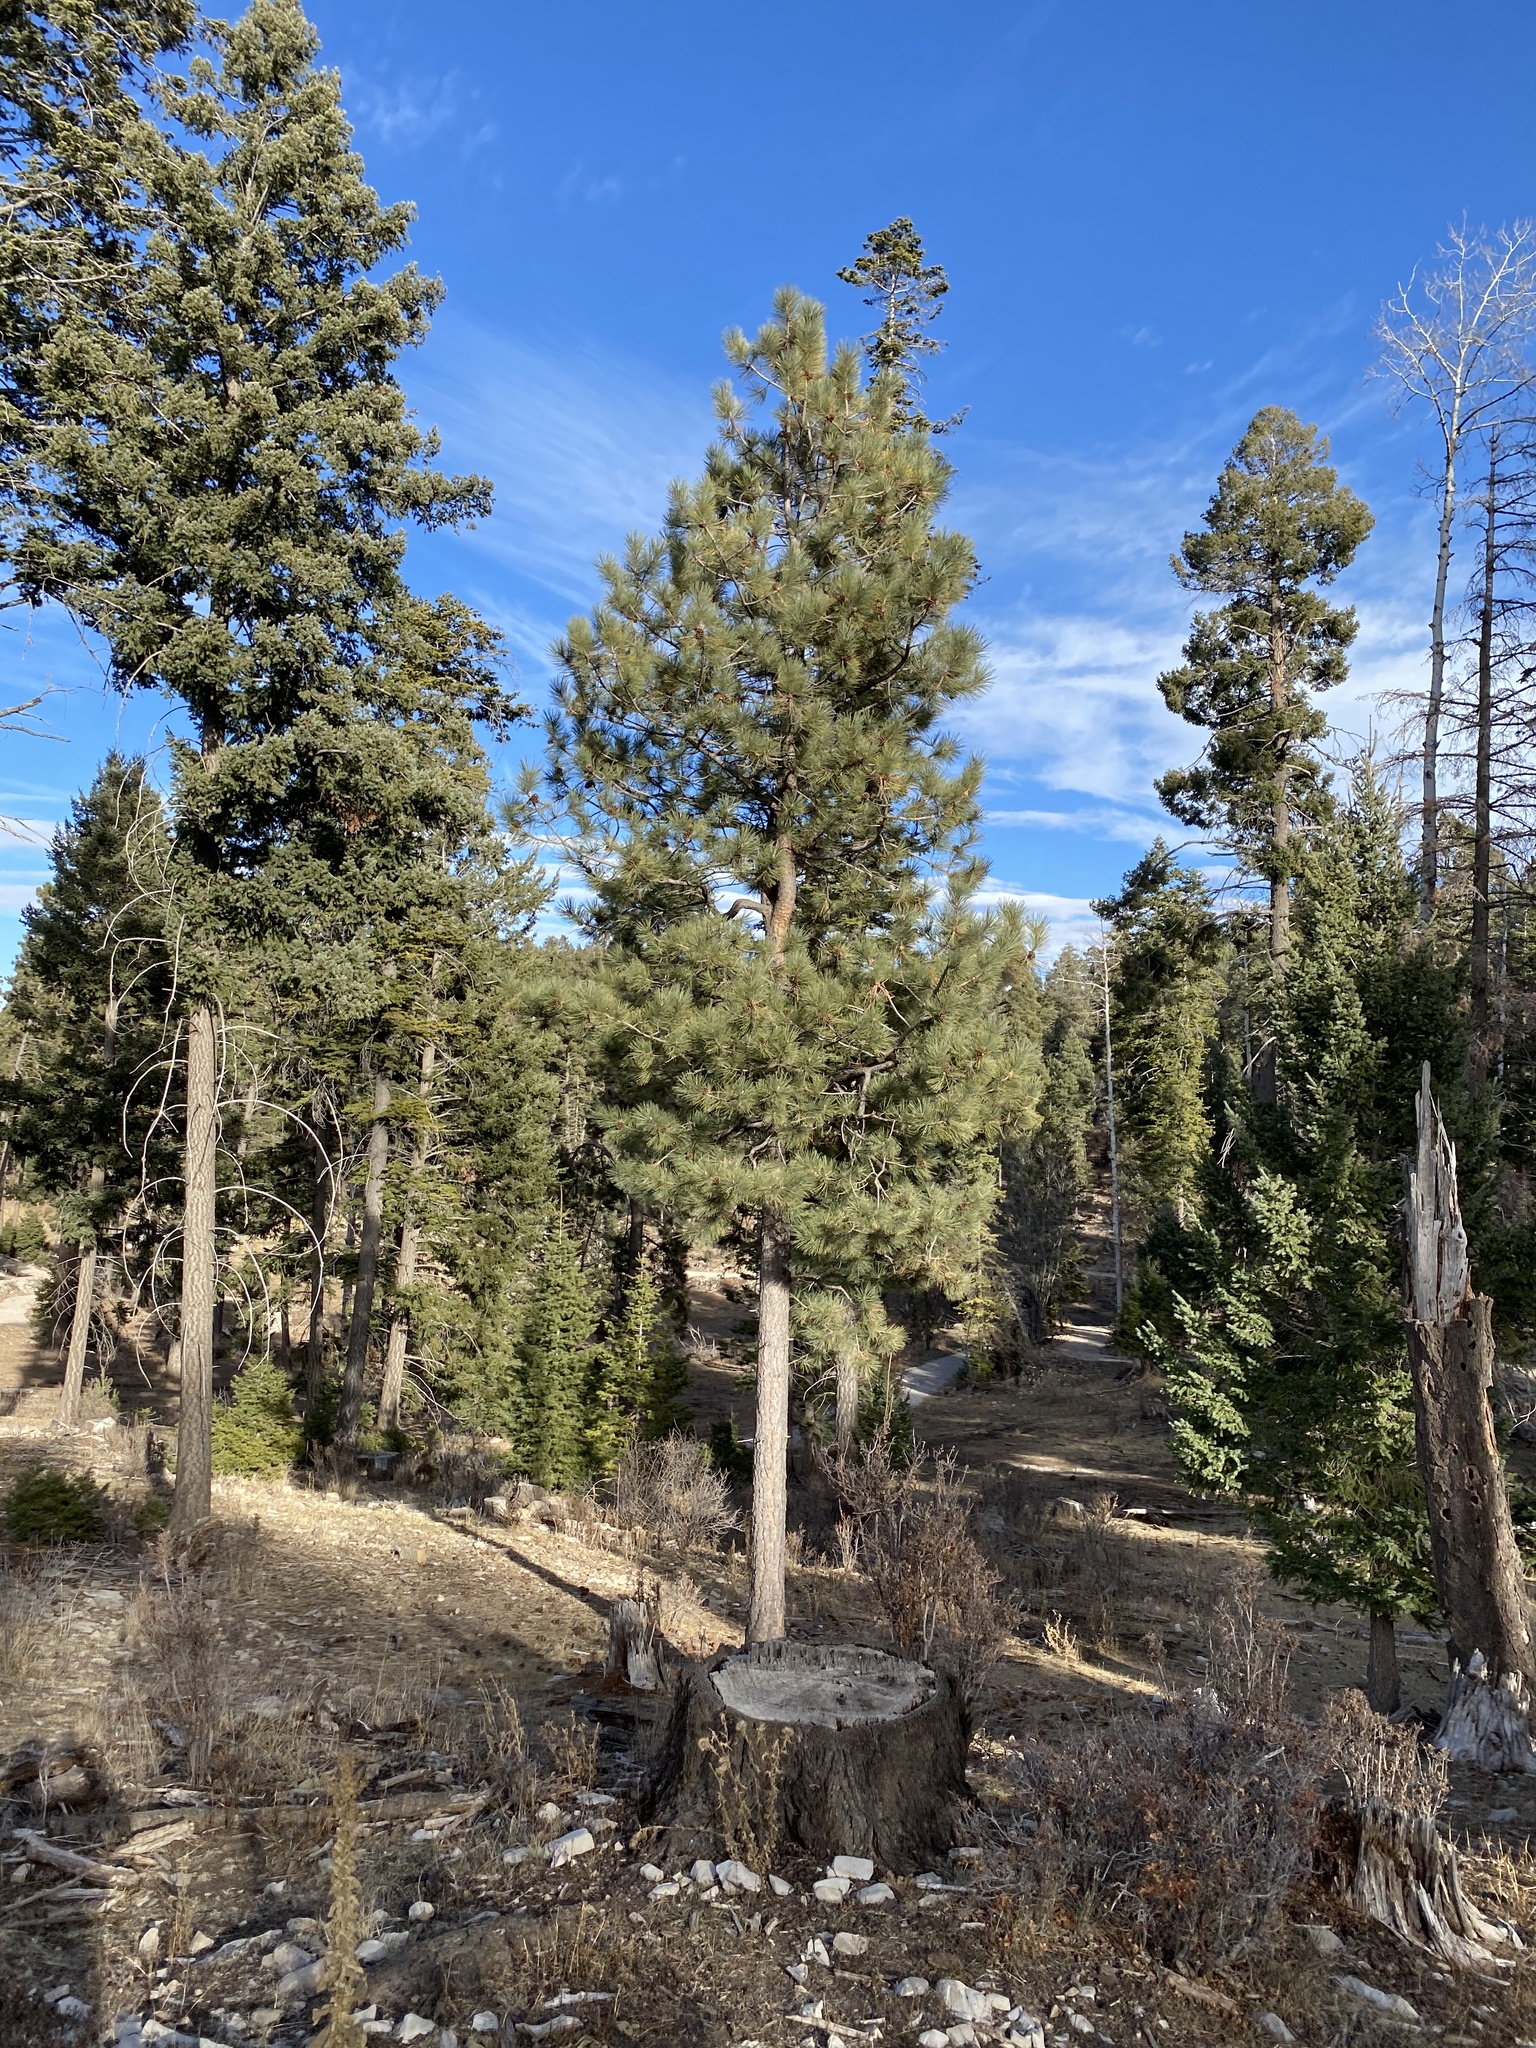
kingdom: Plantae
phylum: Tracheophyta
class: Pinopsida
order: Pinales
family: Pinaceae
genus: Pinus
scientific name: Pinus ponderosa
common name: Western yellow-pine
